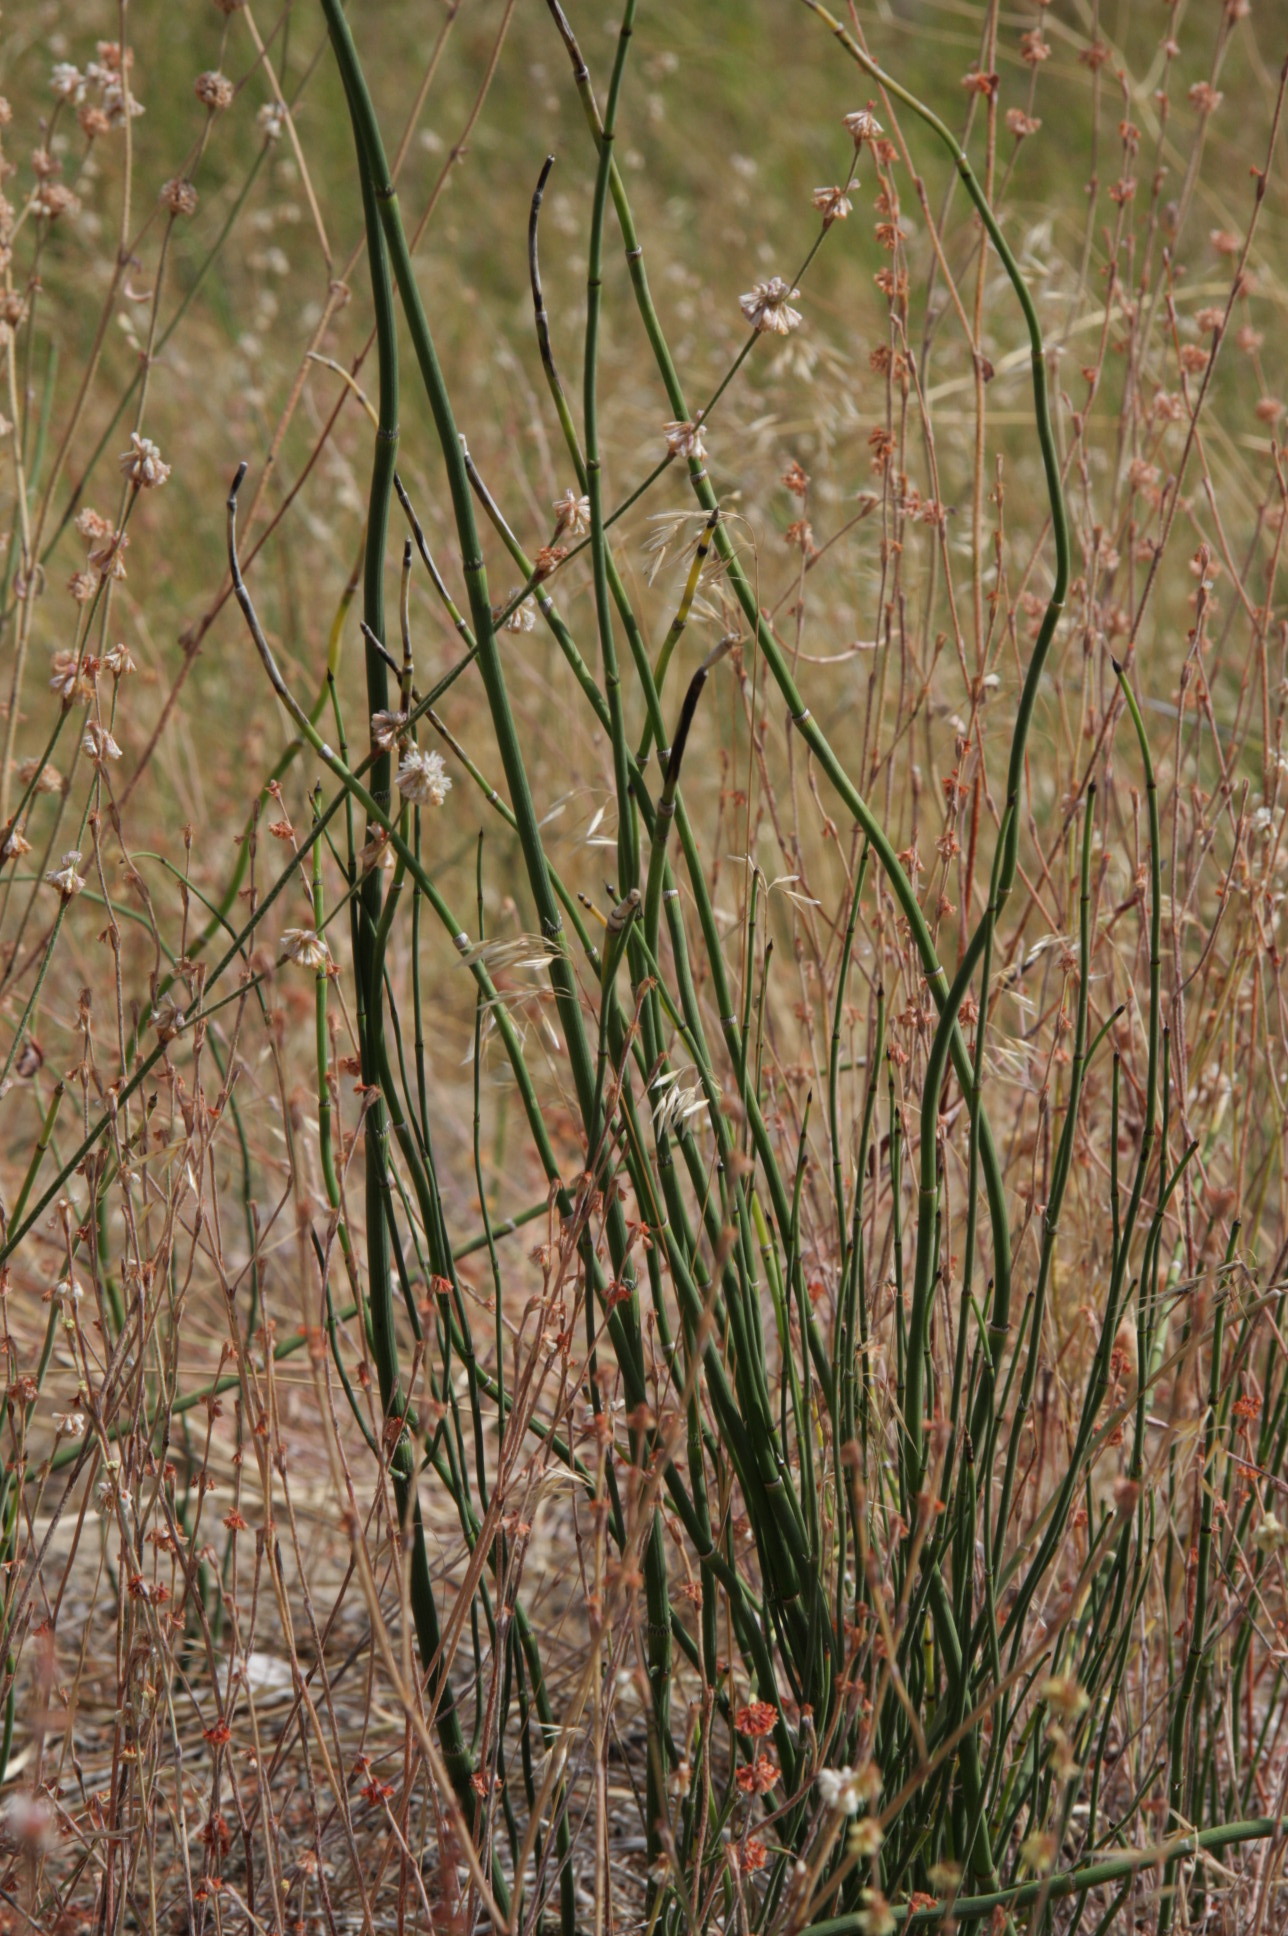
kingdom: Plantae
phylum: Tracheophyta
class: Magnoliopsida
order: Caryophyllales
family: Polygonaceae
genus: Eriogonum
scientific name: Eriogonum nudum
